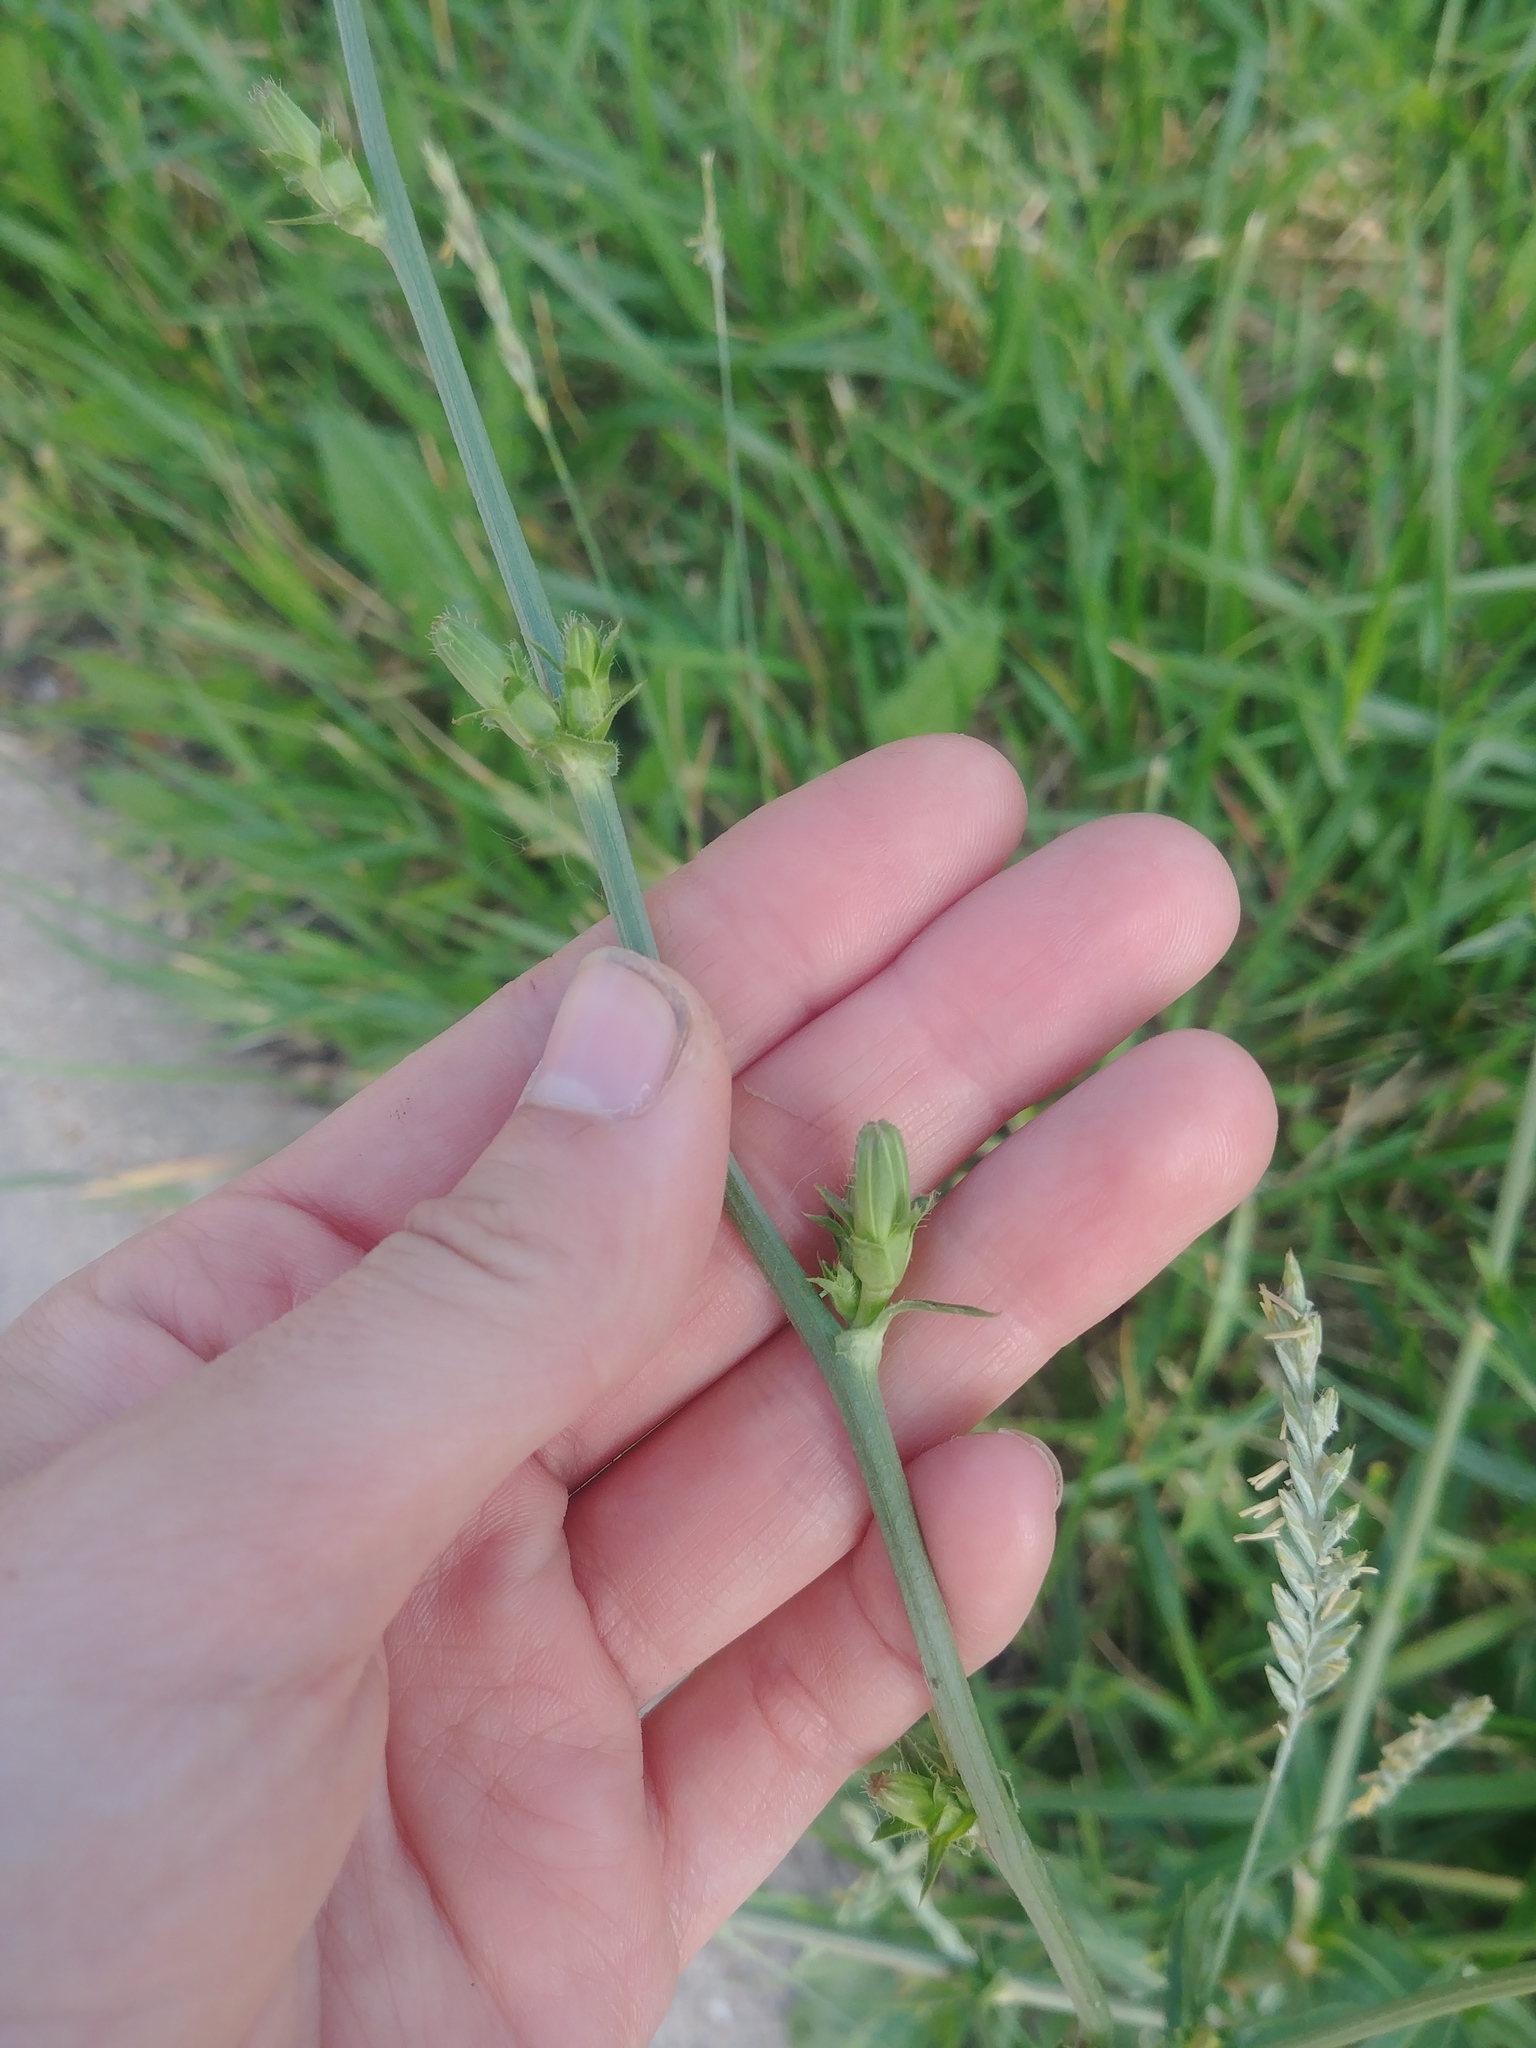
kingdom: Plantae
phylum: Tracheophyta
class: Magnoliopsida
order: Asterales
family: Asteraceae
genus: Cichorium
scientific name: Cichorium intybus
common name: Chicory
